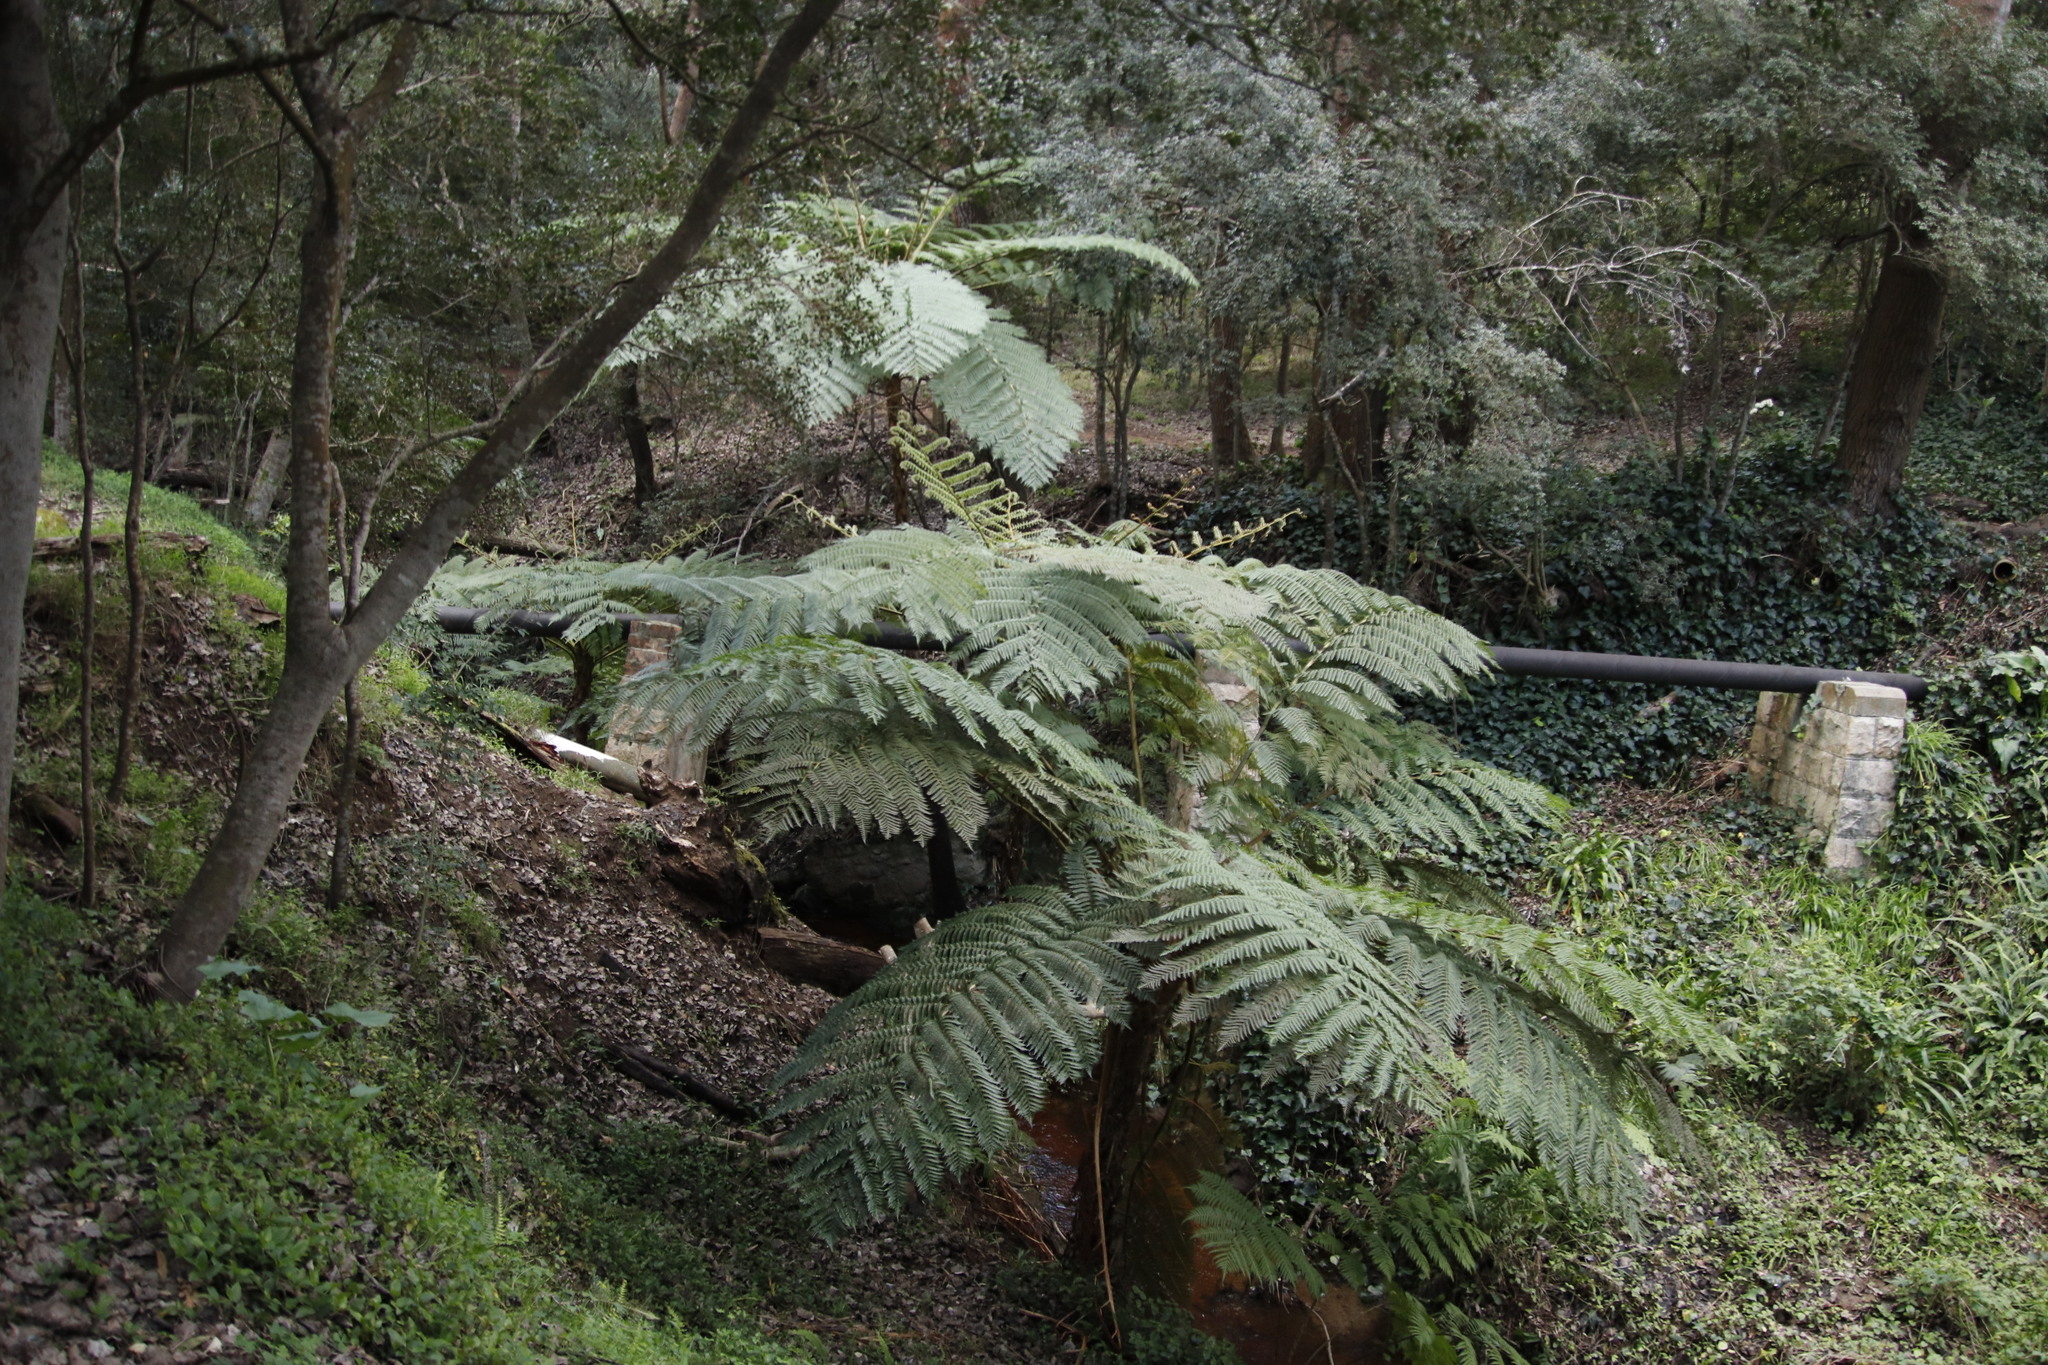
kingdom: Plantae
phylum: Tracheophyta
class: Polypodiopsida
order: Cyatheales
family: Cyatheaceae
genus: Sphaeropteris
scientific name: Sphaeropteris cooperi
